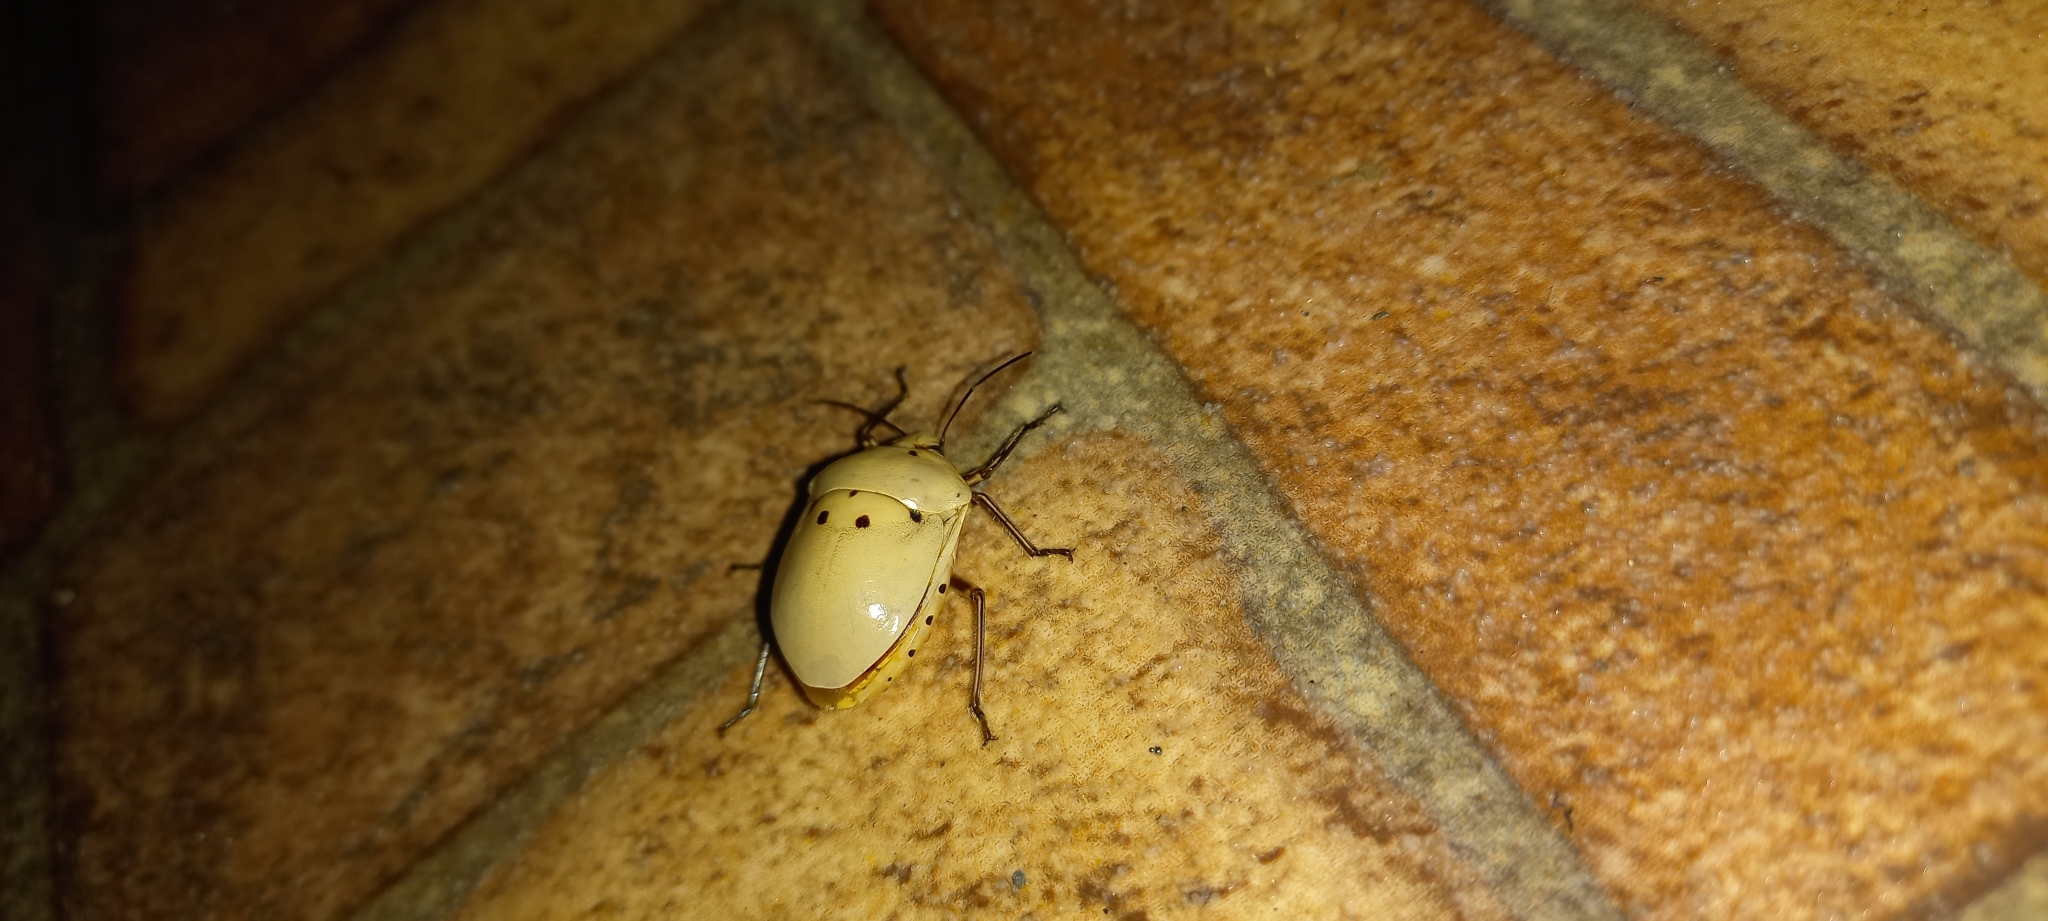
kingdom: Animalia
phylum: Arthropoda
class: Insecta
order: Hemiptera
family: Scutelleridae
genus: Augocoris
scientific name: Augocoris gomesii
